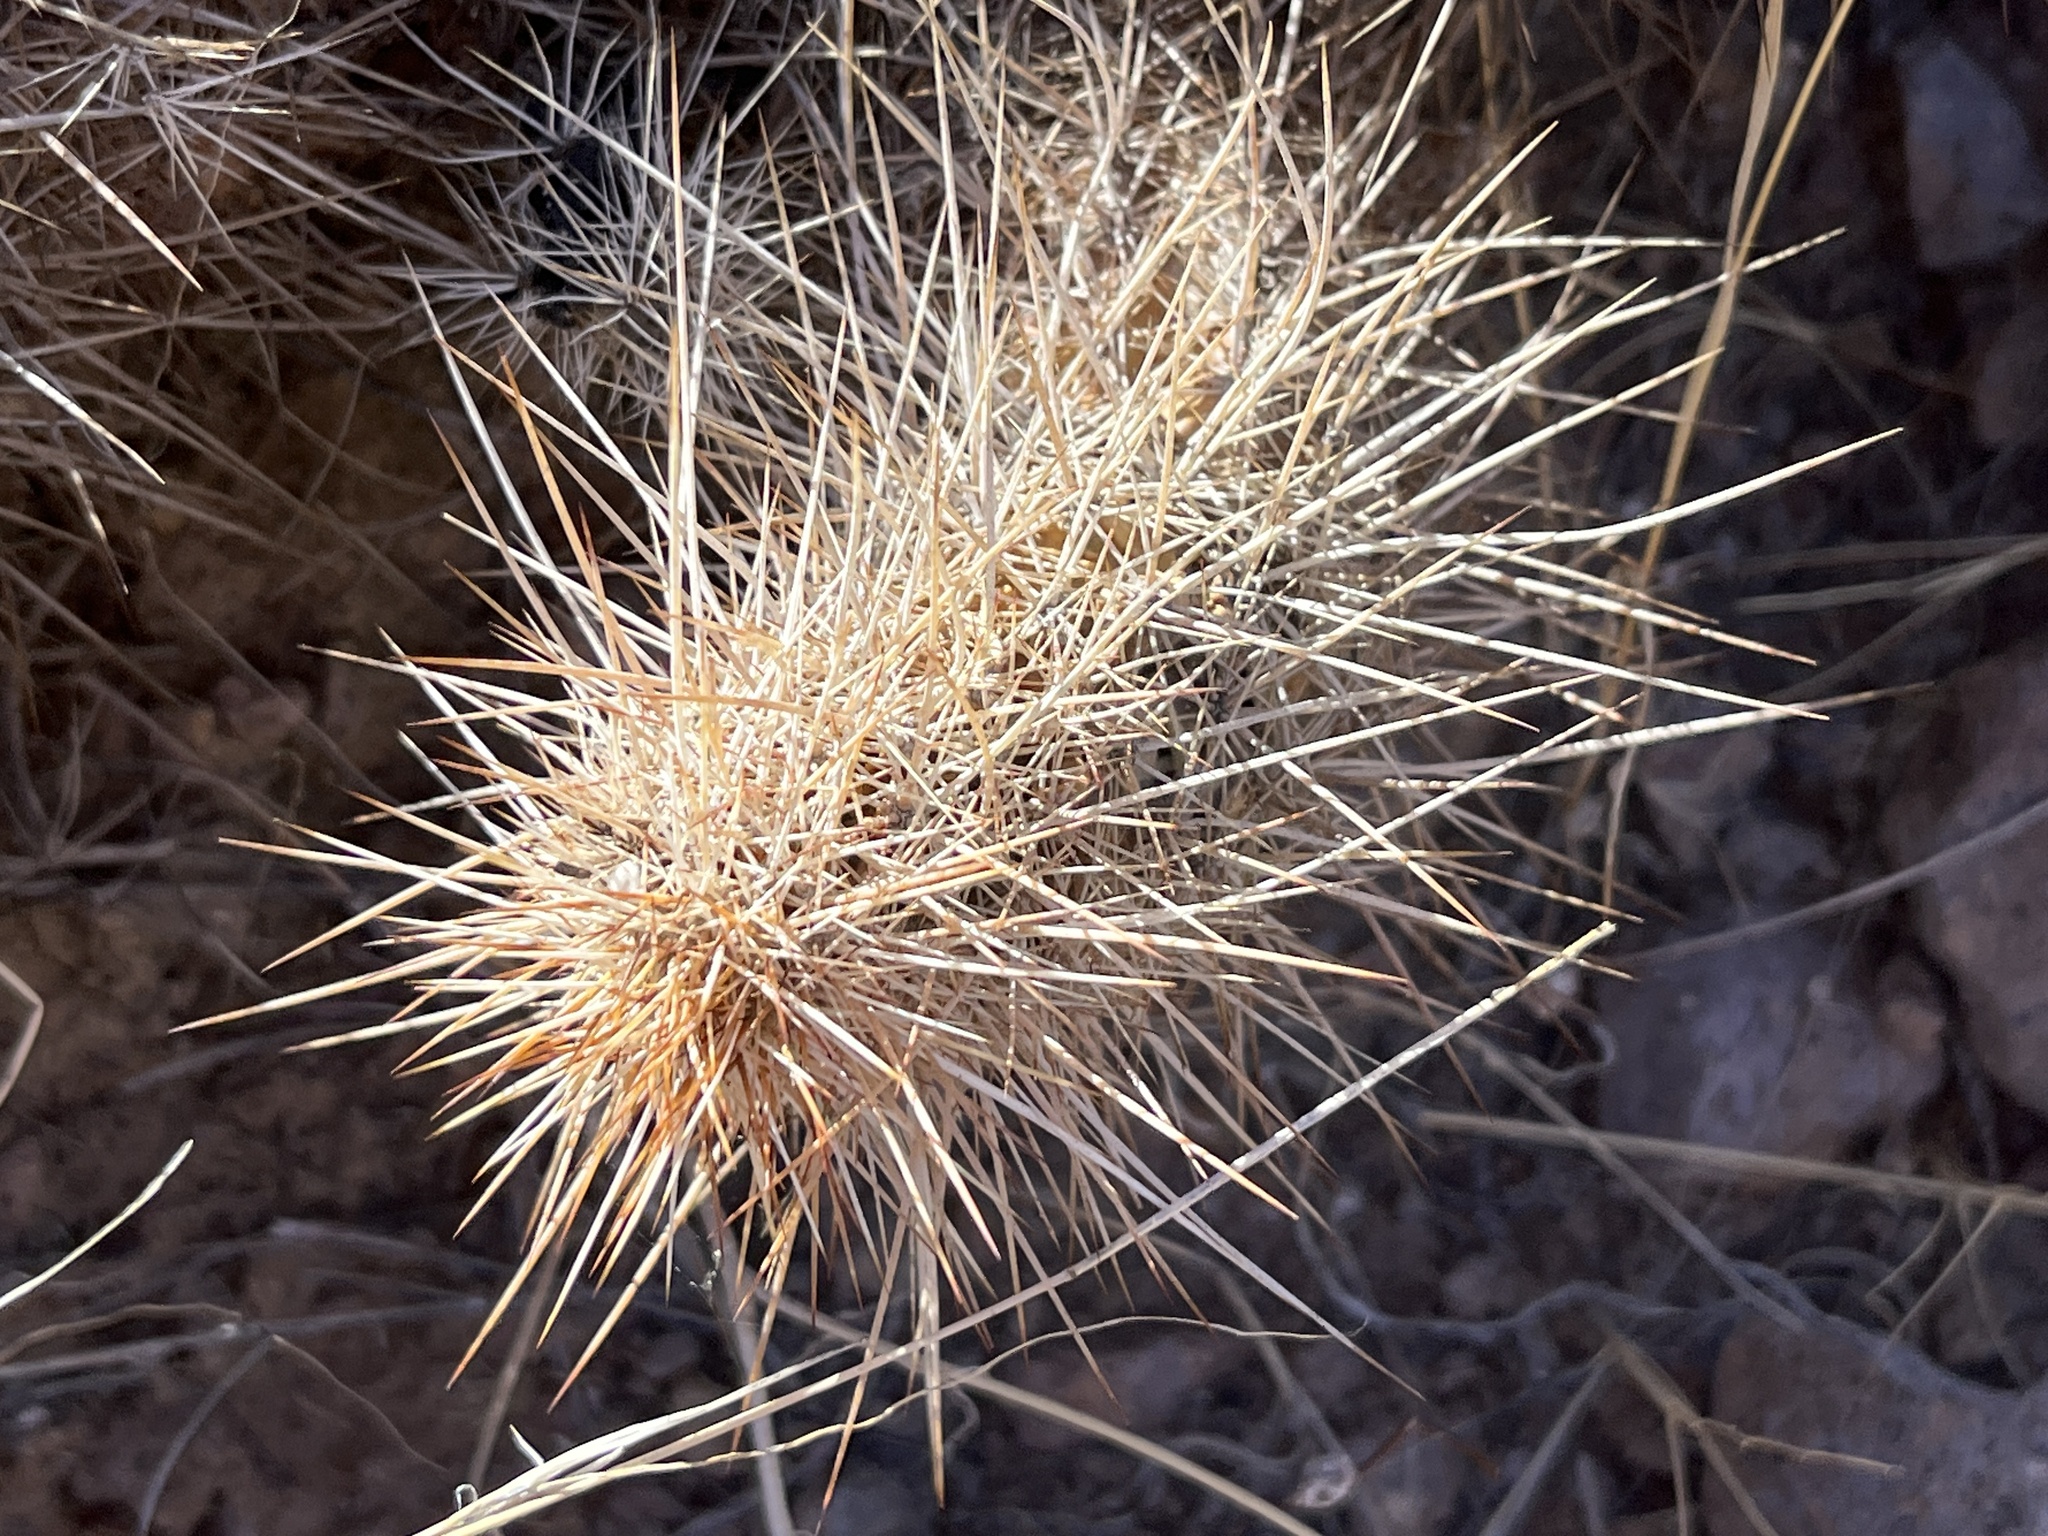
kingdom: Plantae
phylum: Tracheophyta
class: Magnoliopsida
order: Caryophyllales
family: Cactaceae
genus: Echinocereus
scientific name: Echinocereus engelmannii
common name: Engelmann's hedgehog cactus
